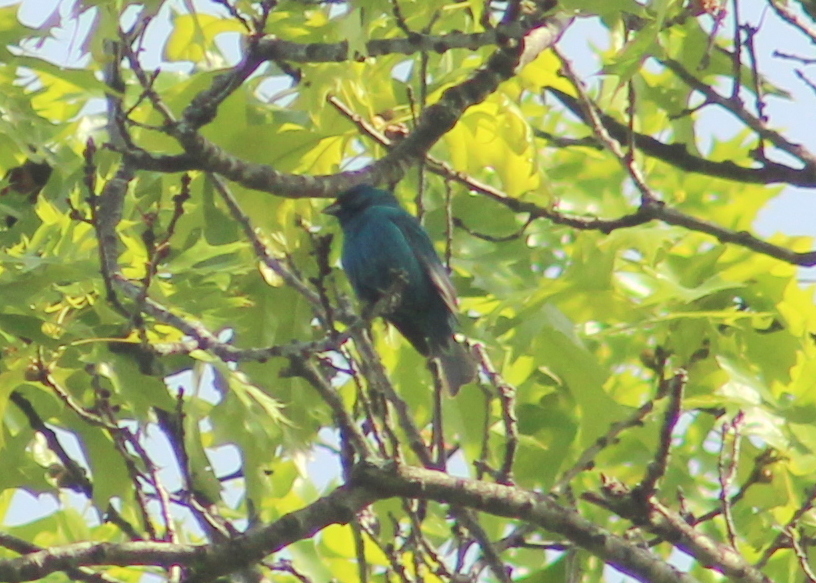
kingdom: Animalia
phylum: Chordata
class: Aves
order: Passeriformes
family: Cardinalidae
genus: Passerina
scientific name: Passerina cyanea
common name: Indigo bunting
